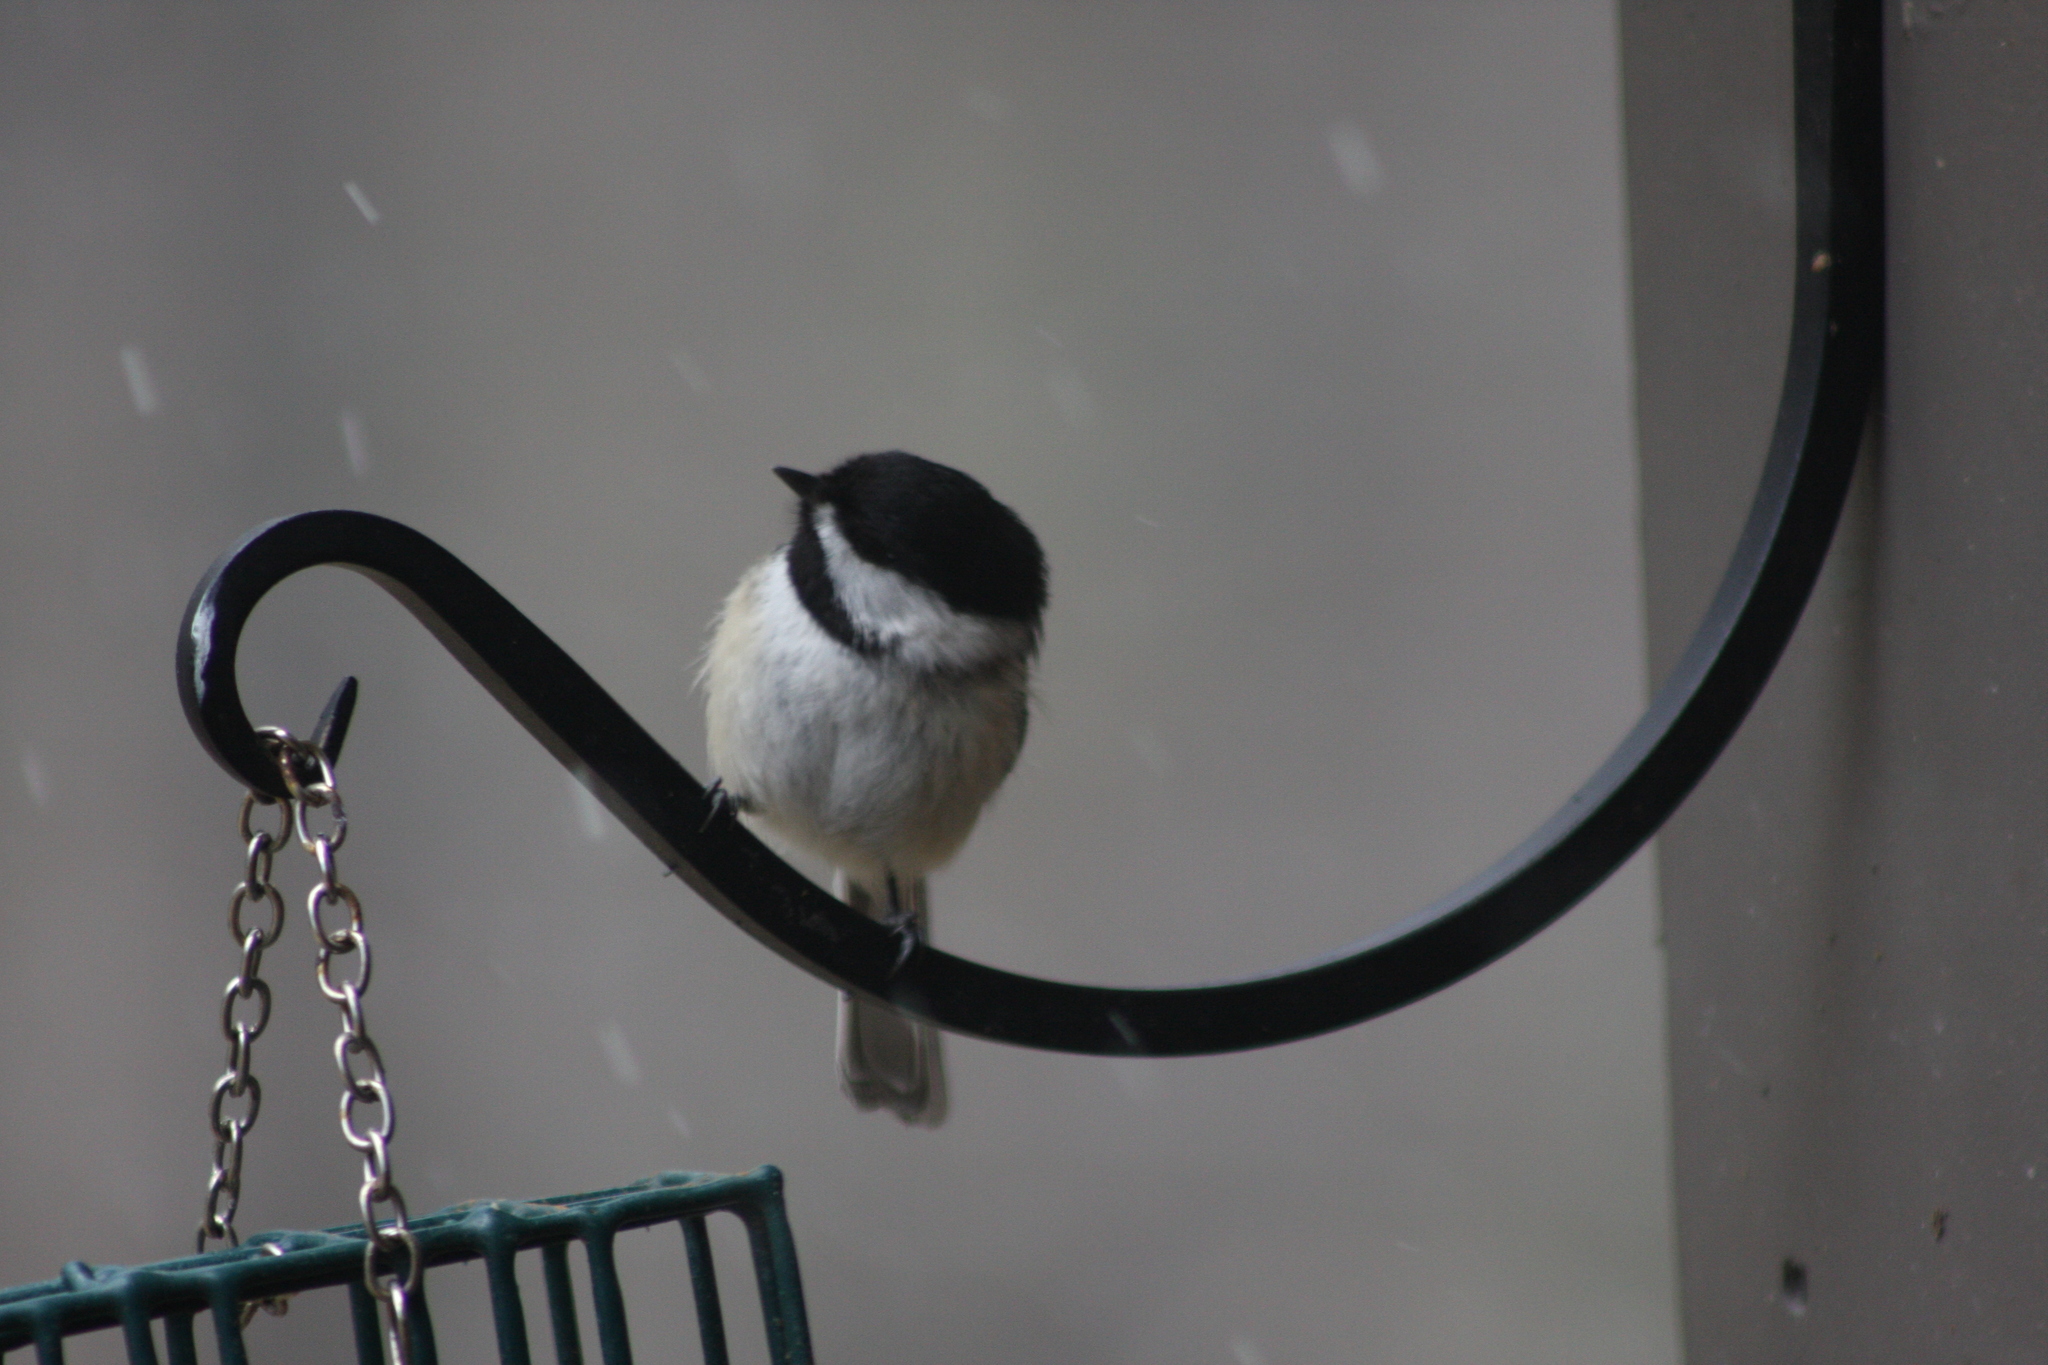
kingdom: Animalia
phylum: Chordata
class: Aves
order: Passeriformes
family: Paridae
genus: Poecile
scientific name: Poecile atricapillus
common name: Black-capped chickadee
